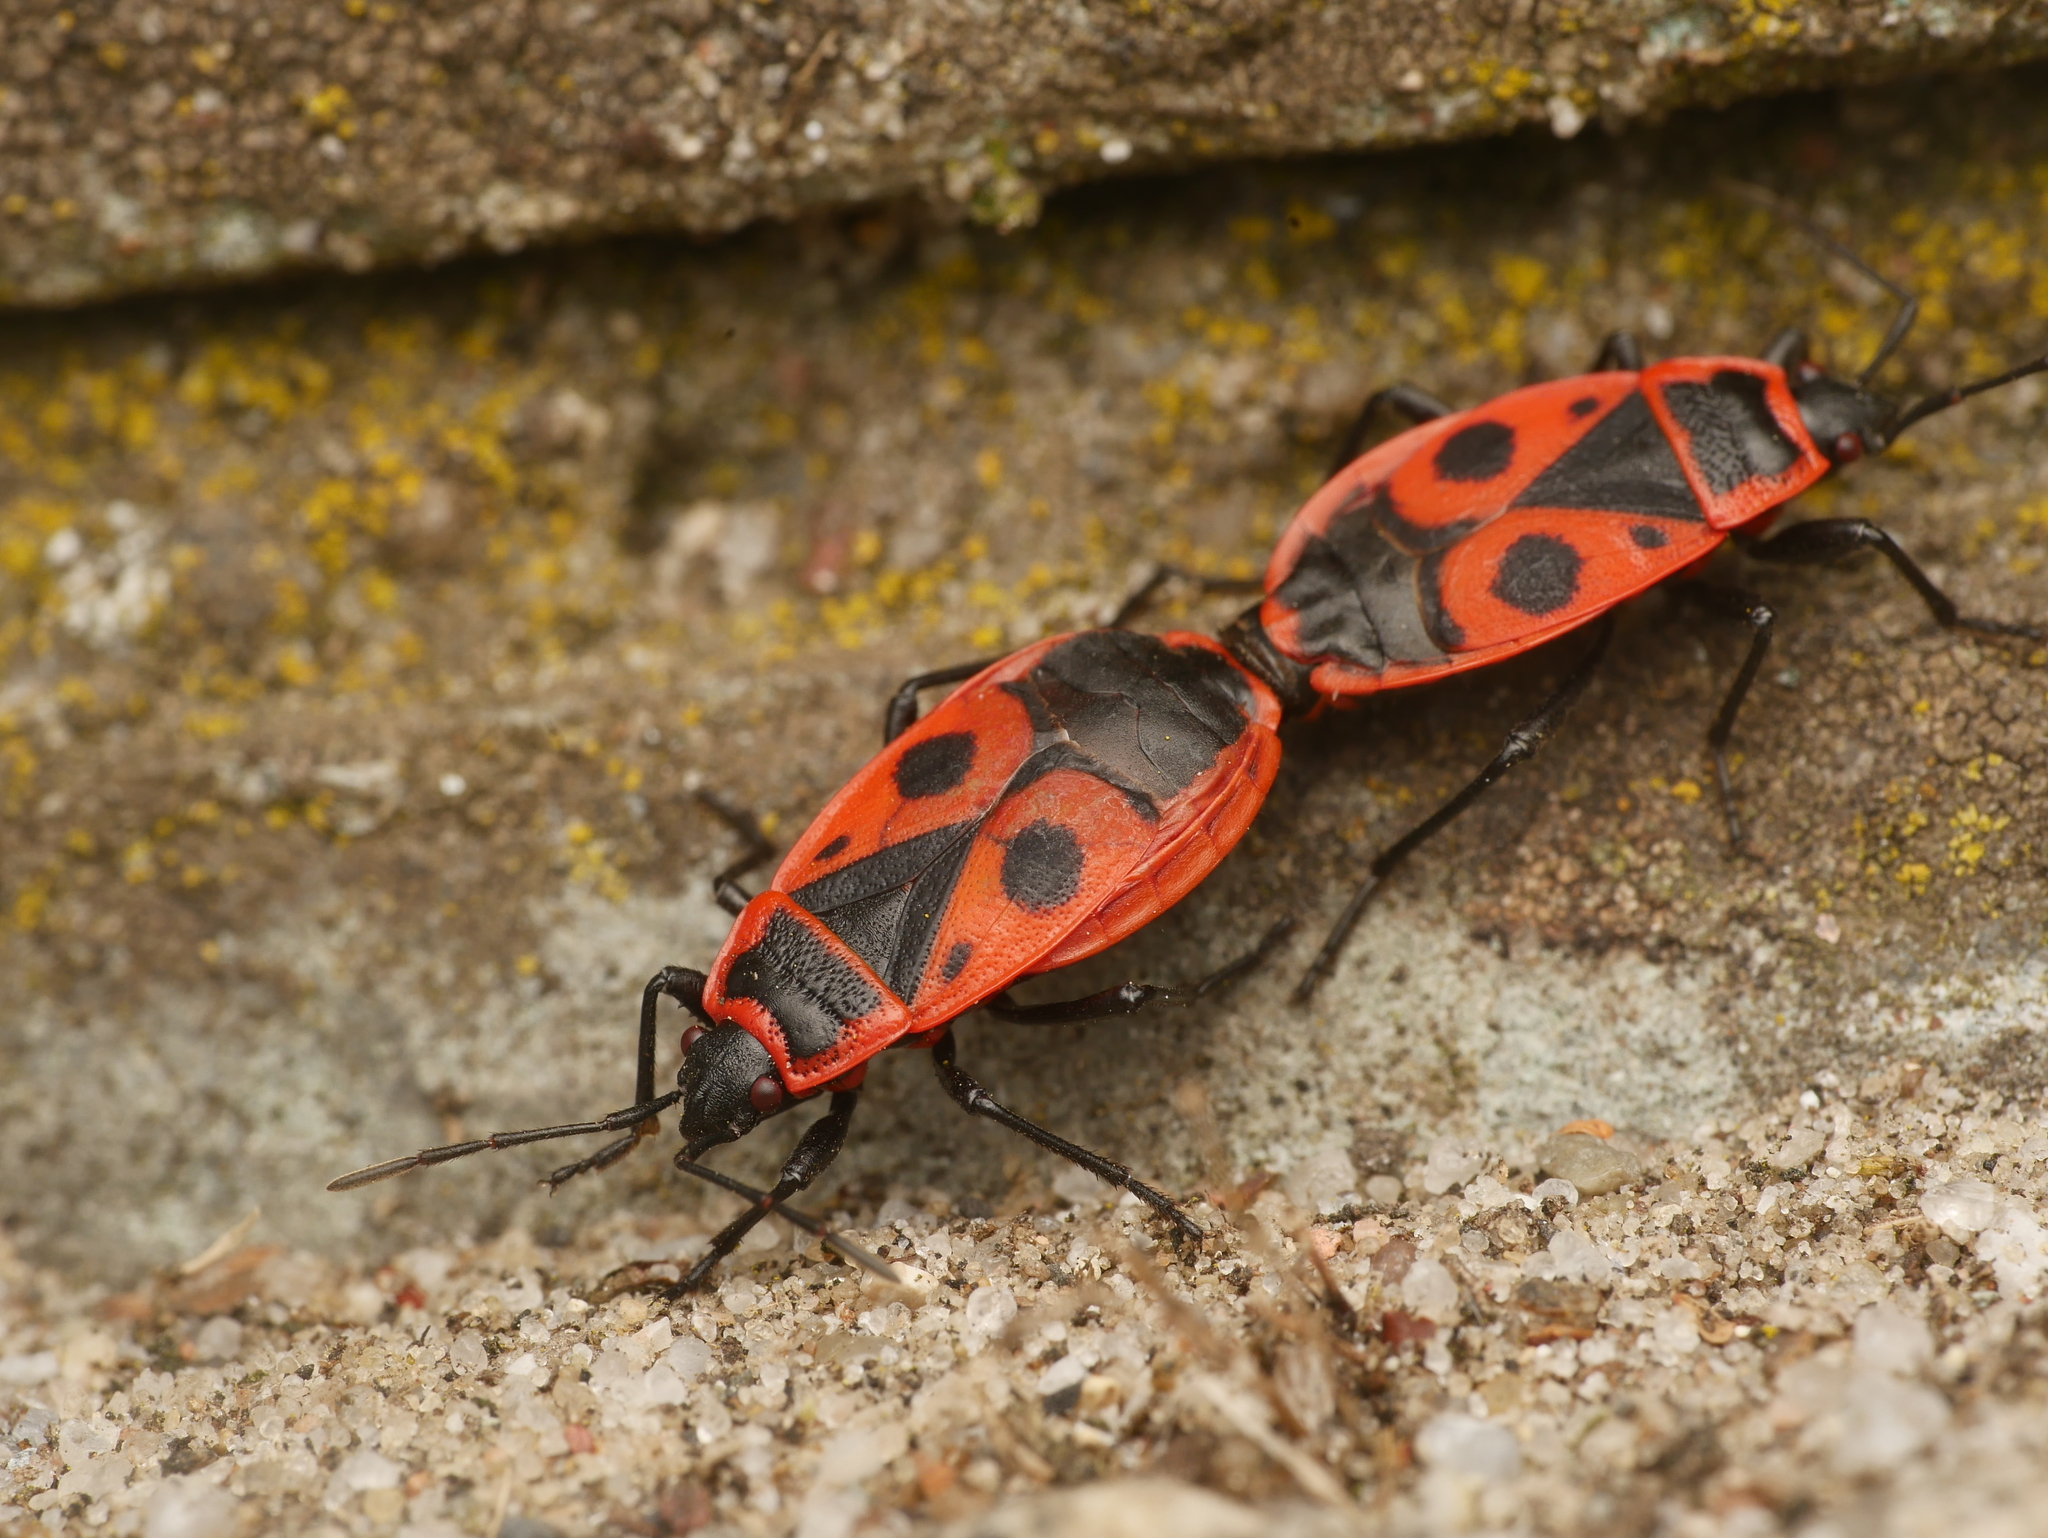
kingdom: Animalia
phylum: Arthropoda
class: Insecta
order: Hemiptera
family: Pyrrhocoridae
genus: Pyrrhocoris
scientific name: Pyrrhocoris apterus
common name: Firebug
